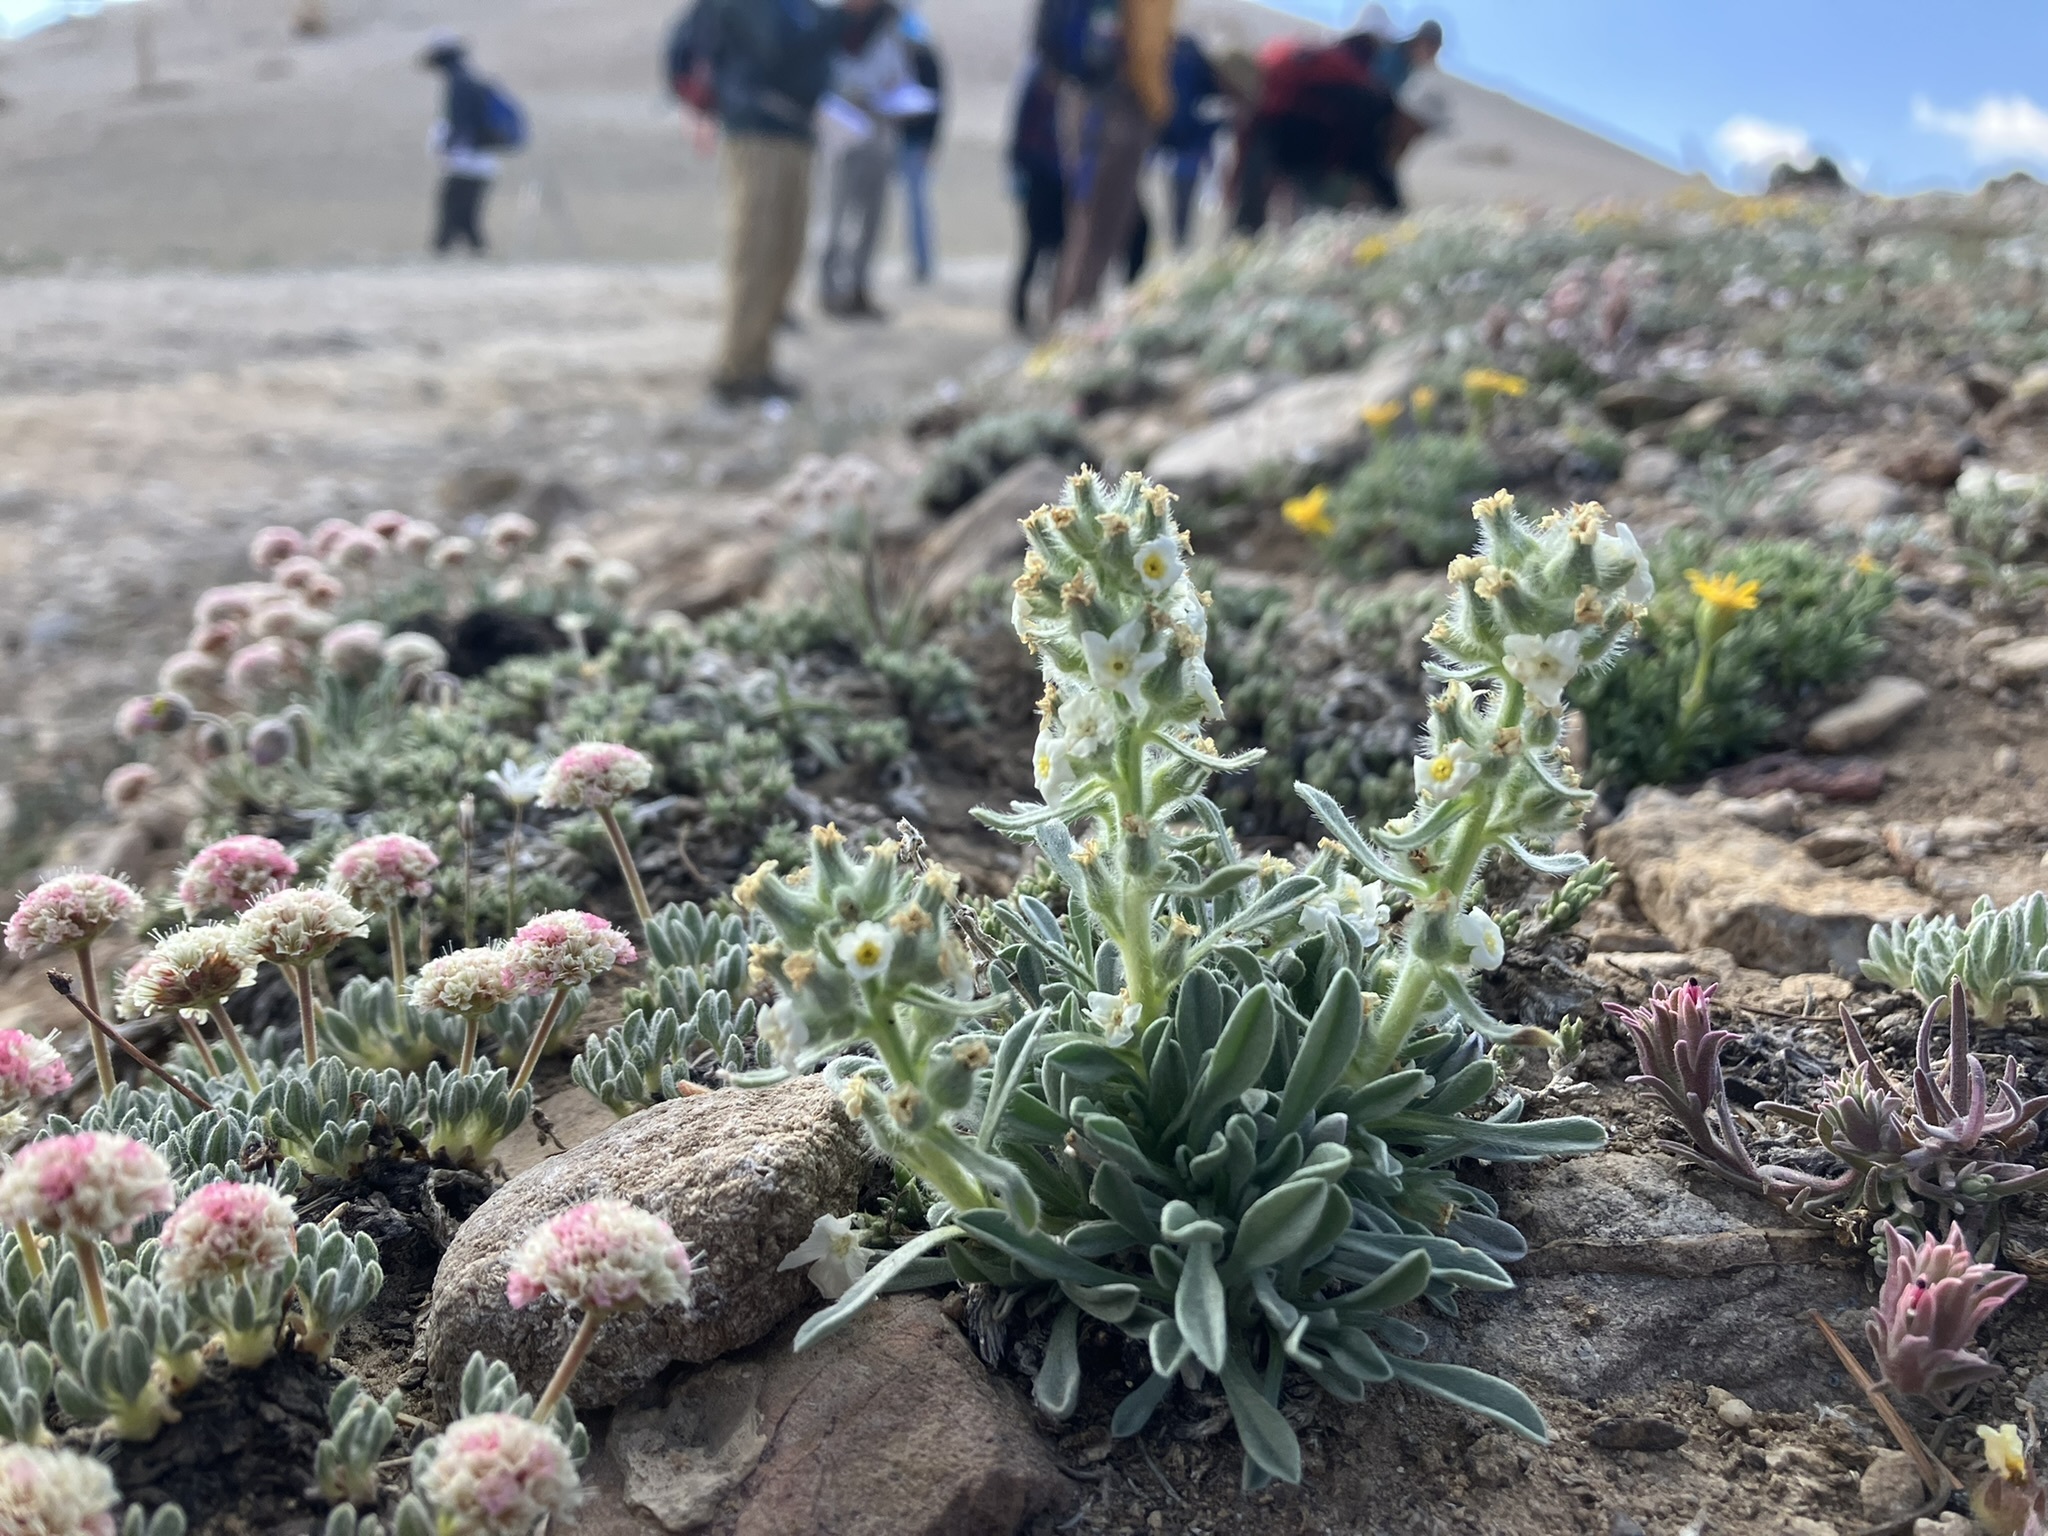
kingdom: Plantae
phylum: Tracheophyta
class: Magnoliopsida
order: Boraginales
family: Boraginaceae
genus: Oreocarya
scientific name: Oreocarya humilis
